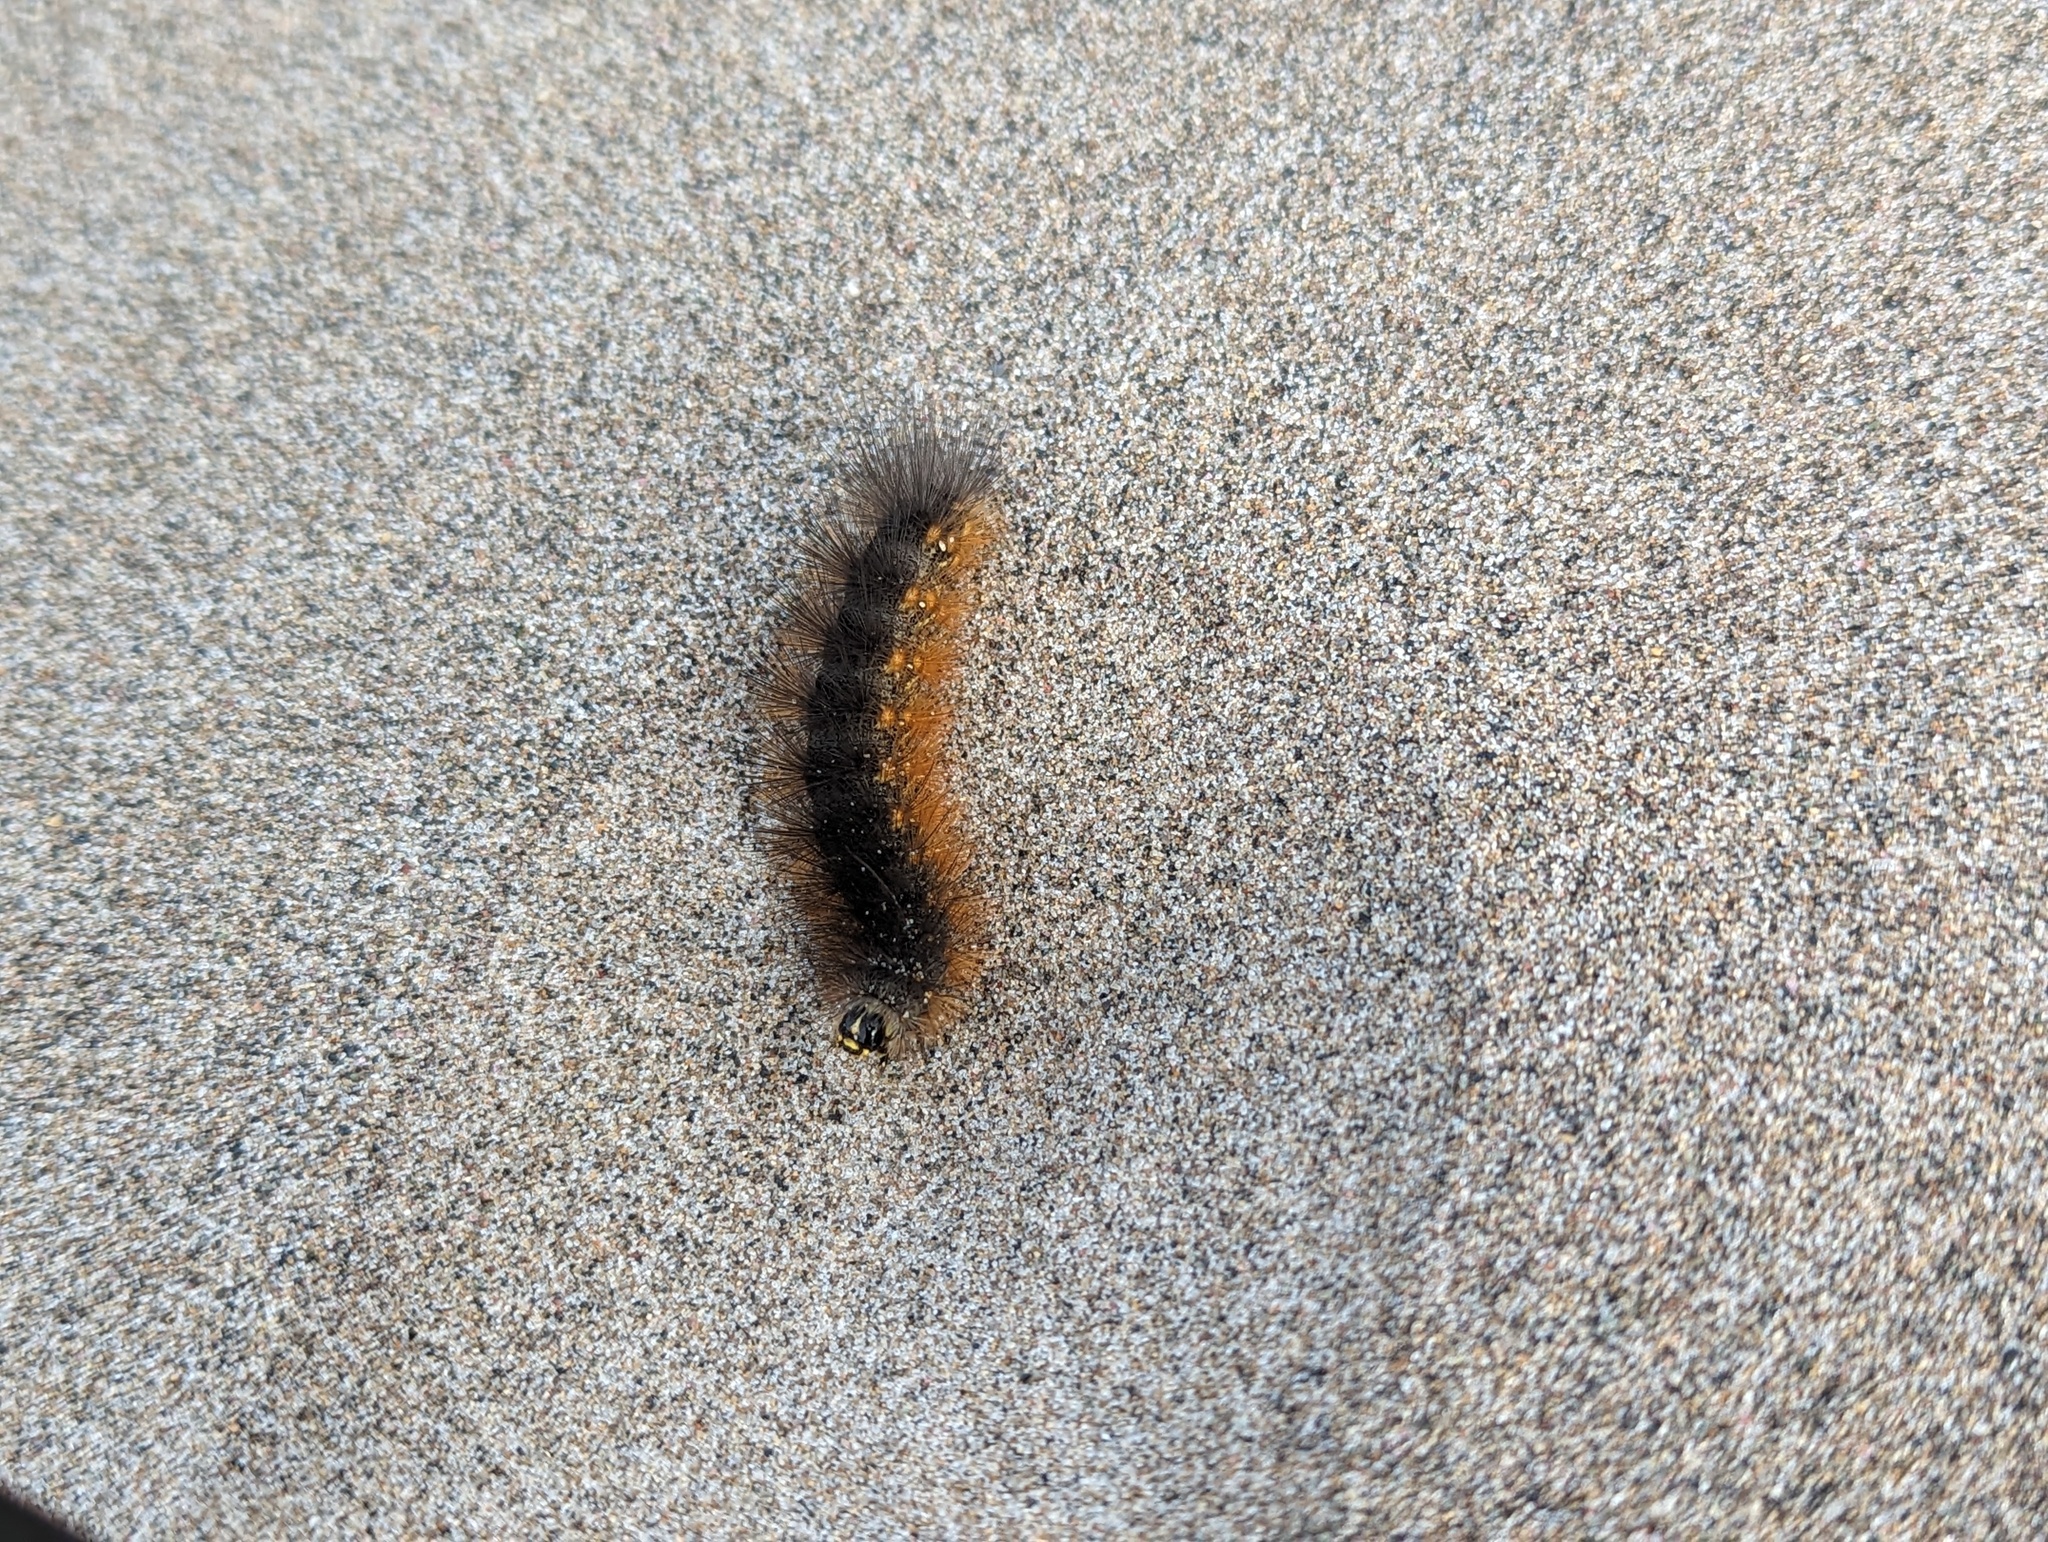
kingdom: Animalia
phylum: Arthropoda
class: Insecta
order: Lepidoptera
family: Erebidae
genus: Estigmene
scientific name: Estigmene acrea
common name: Salt marsh moth
